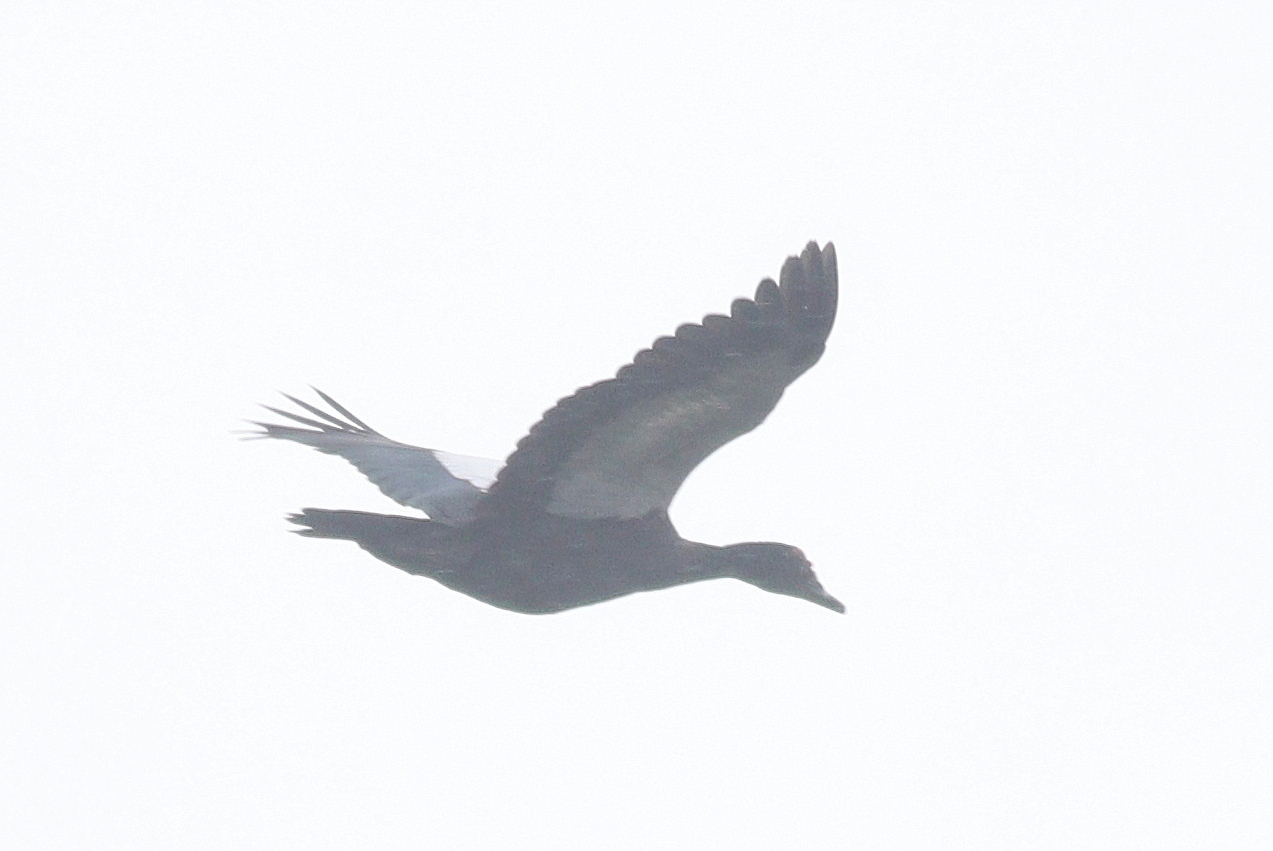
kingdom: Animalia
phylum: Chordata
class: Aves
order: Anseriformes
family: Anatidae
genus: Cairina
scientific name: Cairina moschata
